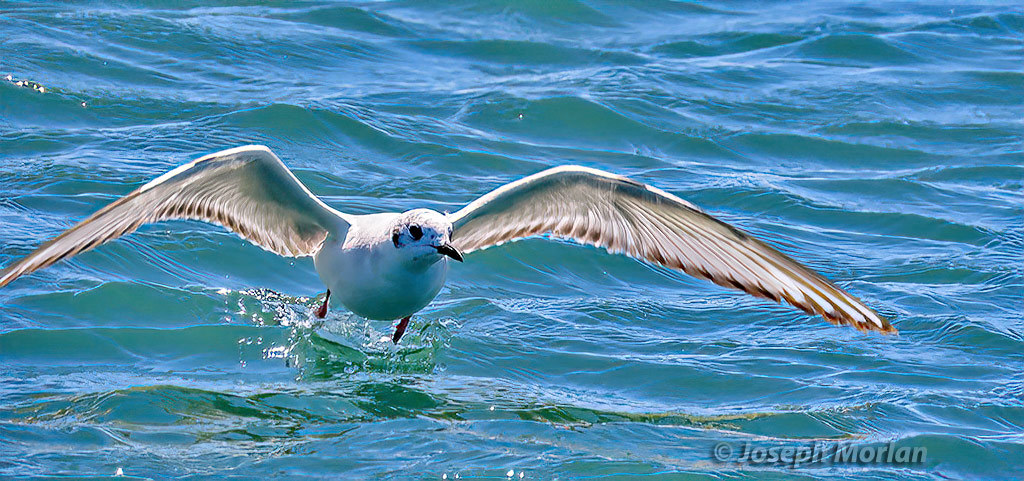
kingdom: Animalia
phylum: Chordata
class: Aves
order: Charadriiformes
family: Laridae
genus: Chroicocephalus
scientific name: Chroicocephalus philadelphia
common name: Bonaparte's gull
